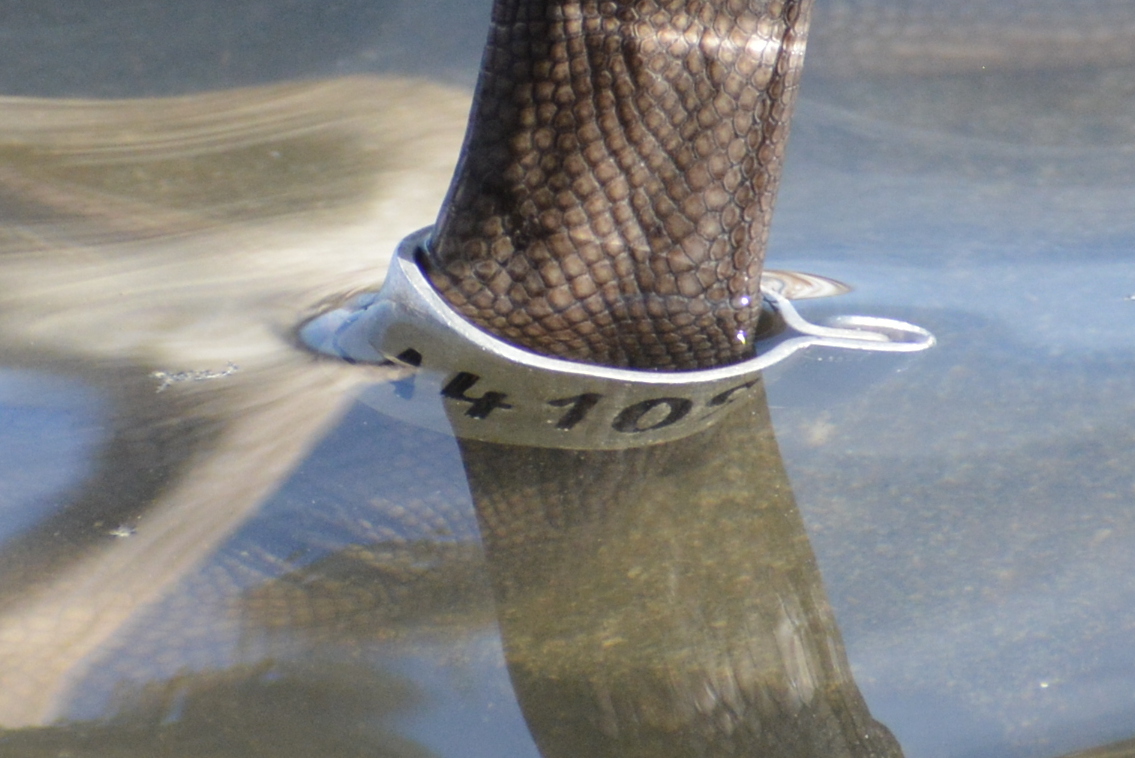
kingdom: Animalia
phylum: Chordata
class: Aves
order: Anseriformes
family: Anatidae
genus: Cygnus
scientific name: Cygnus olor
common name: Mute swan
